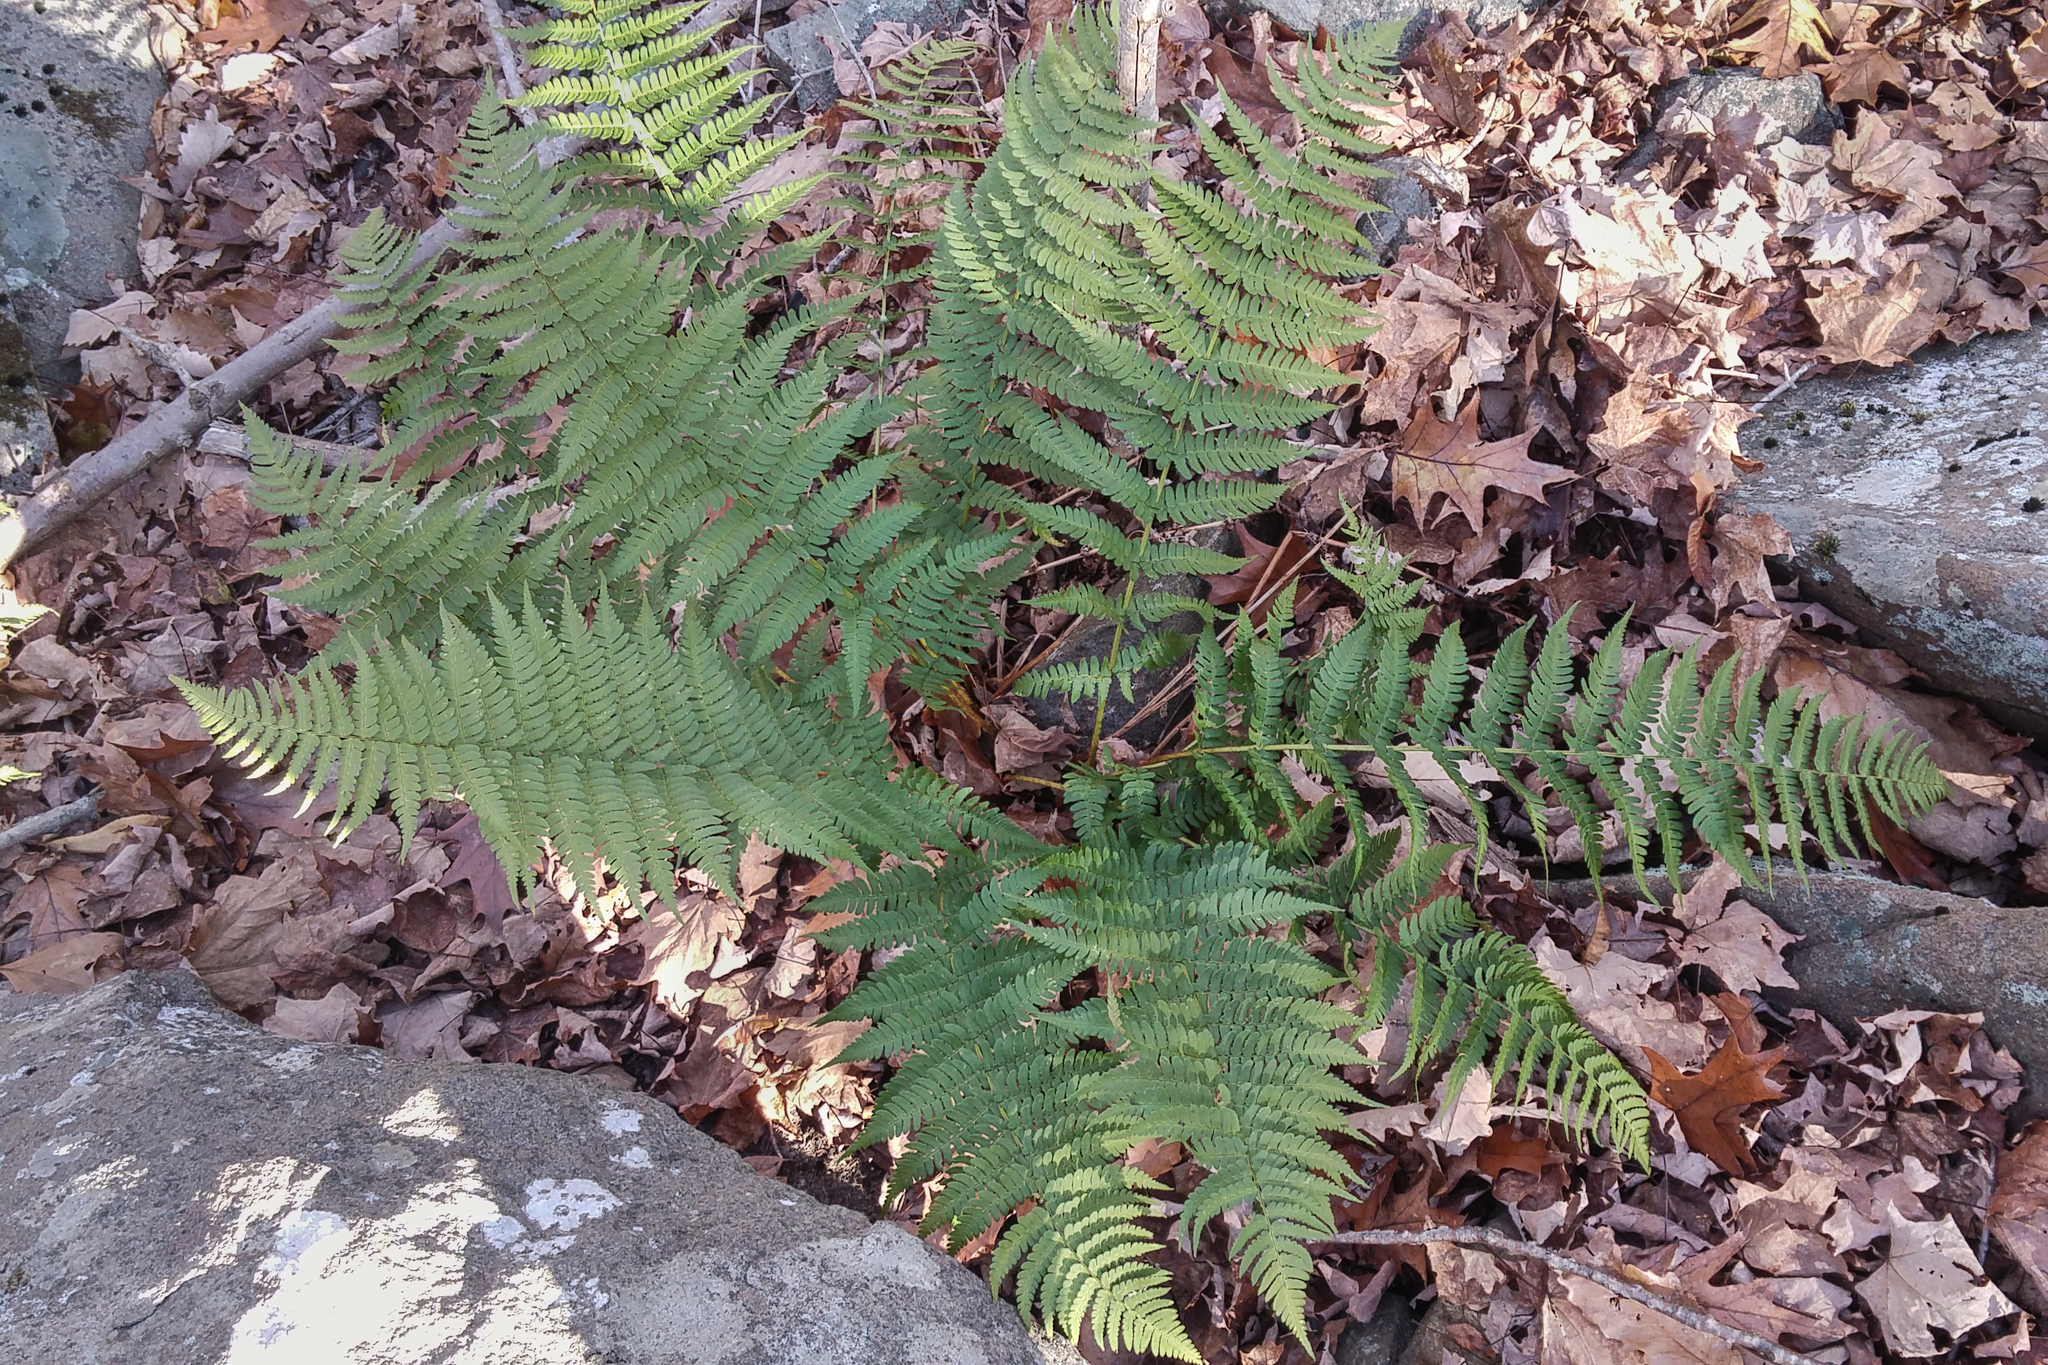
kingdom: Plantae
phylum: Tracheophyta
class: Polypodiopsida
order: Polypodiales
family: Dryopteridaceae
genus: Dryopteris
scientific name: Dryopteris marginalis
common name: Marginal wood fern
